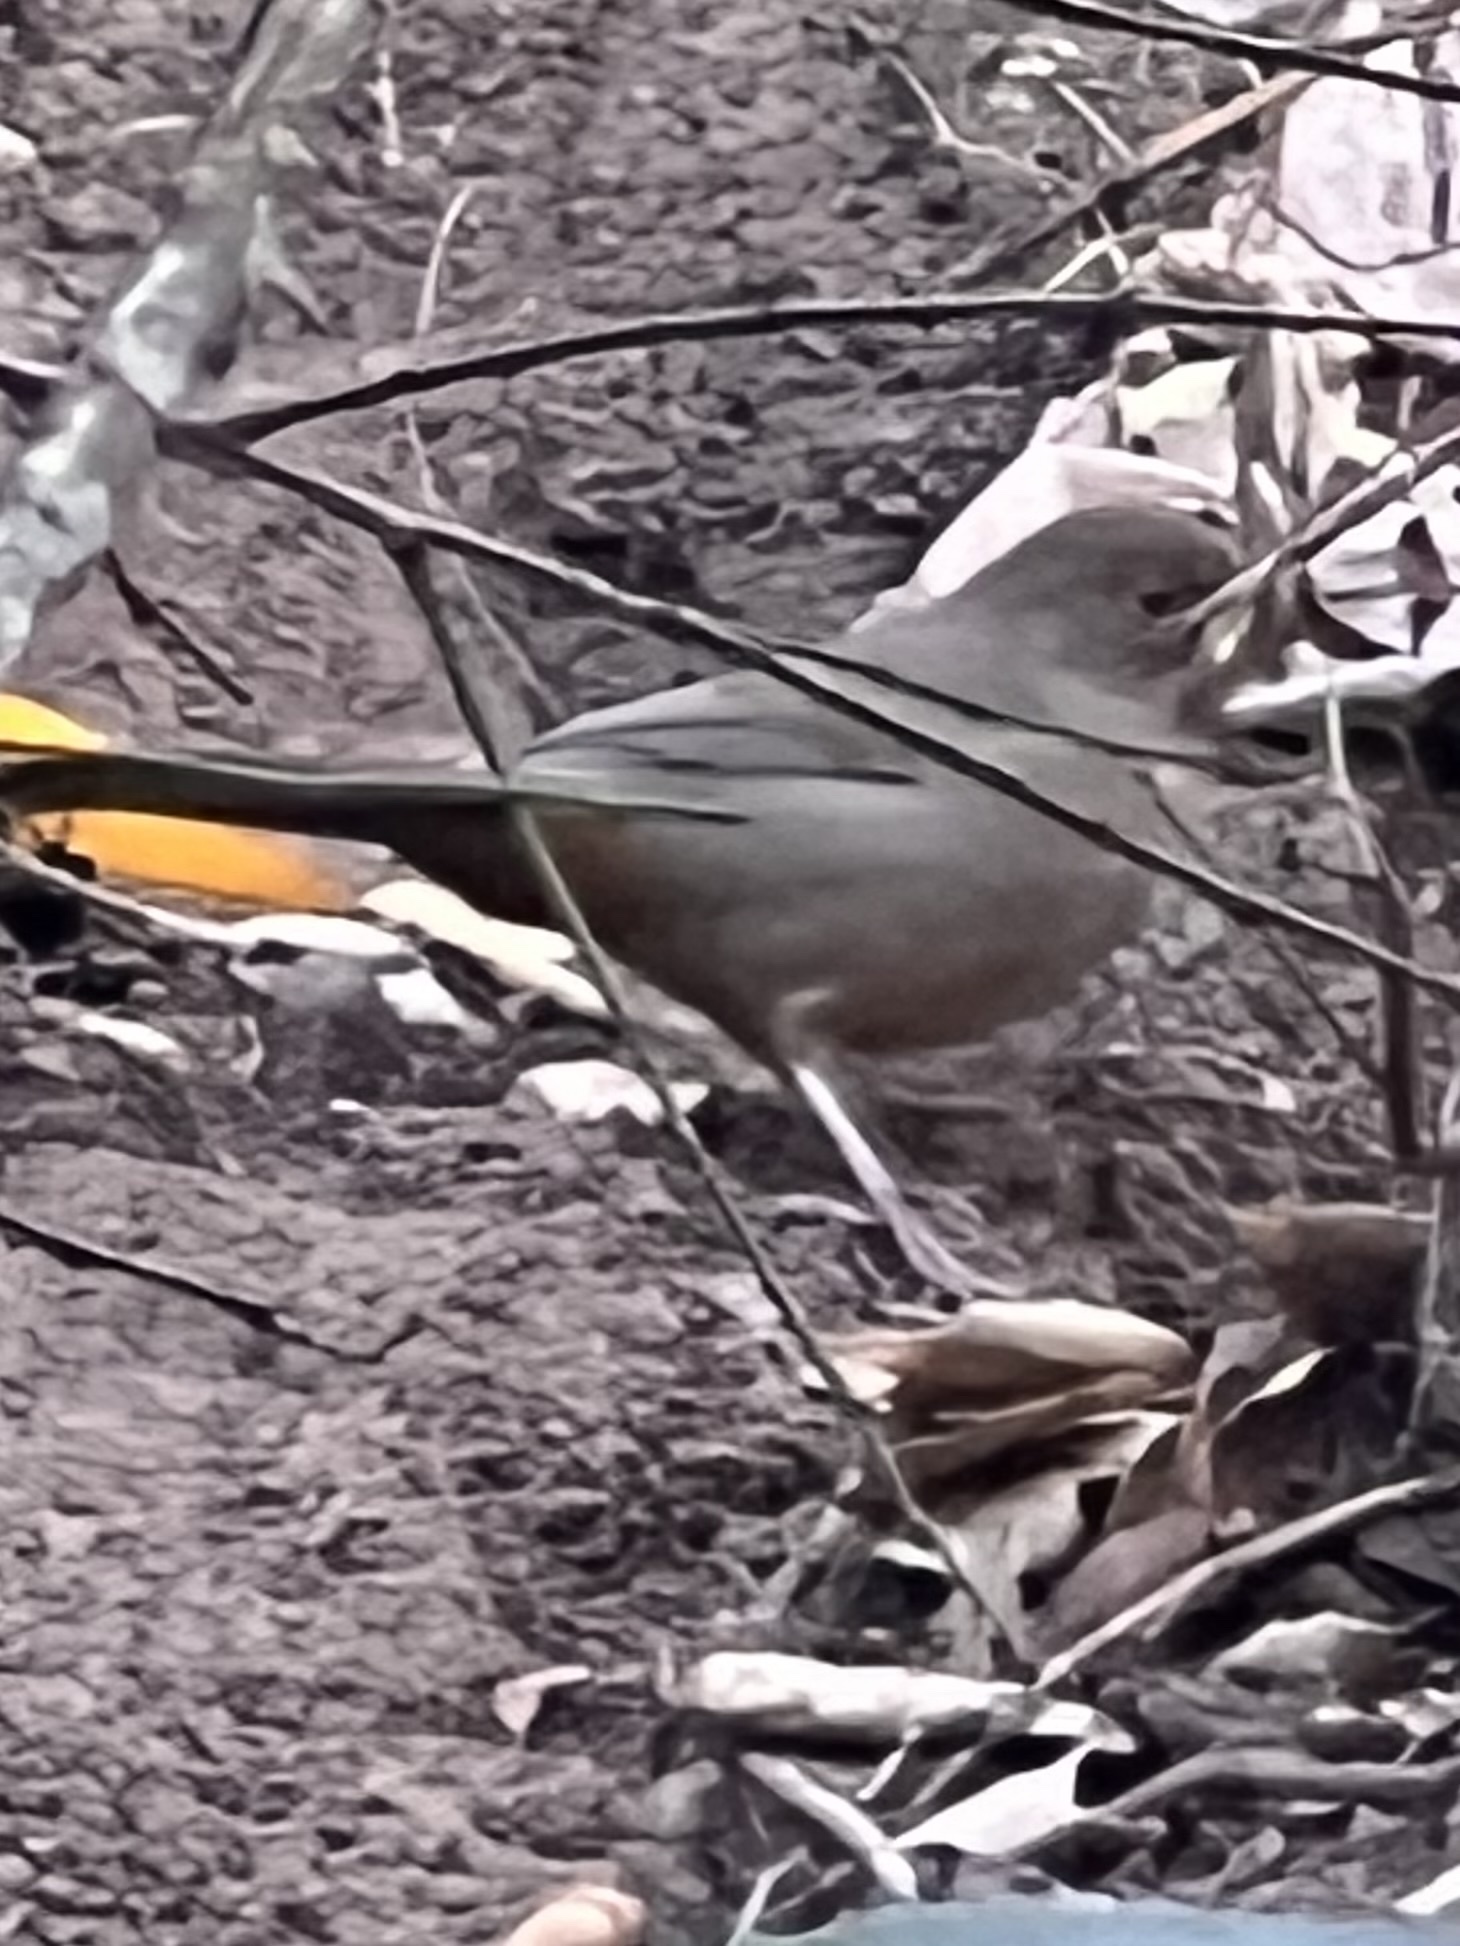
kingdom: Animalia
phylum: Chordata
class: Aves
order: Passeriformes
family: Passerellidae
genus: Melozone
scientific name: Melozone crissalis
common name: California towhee
